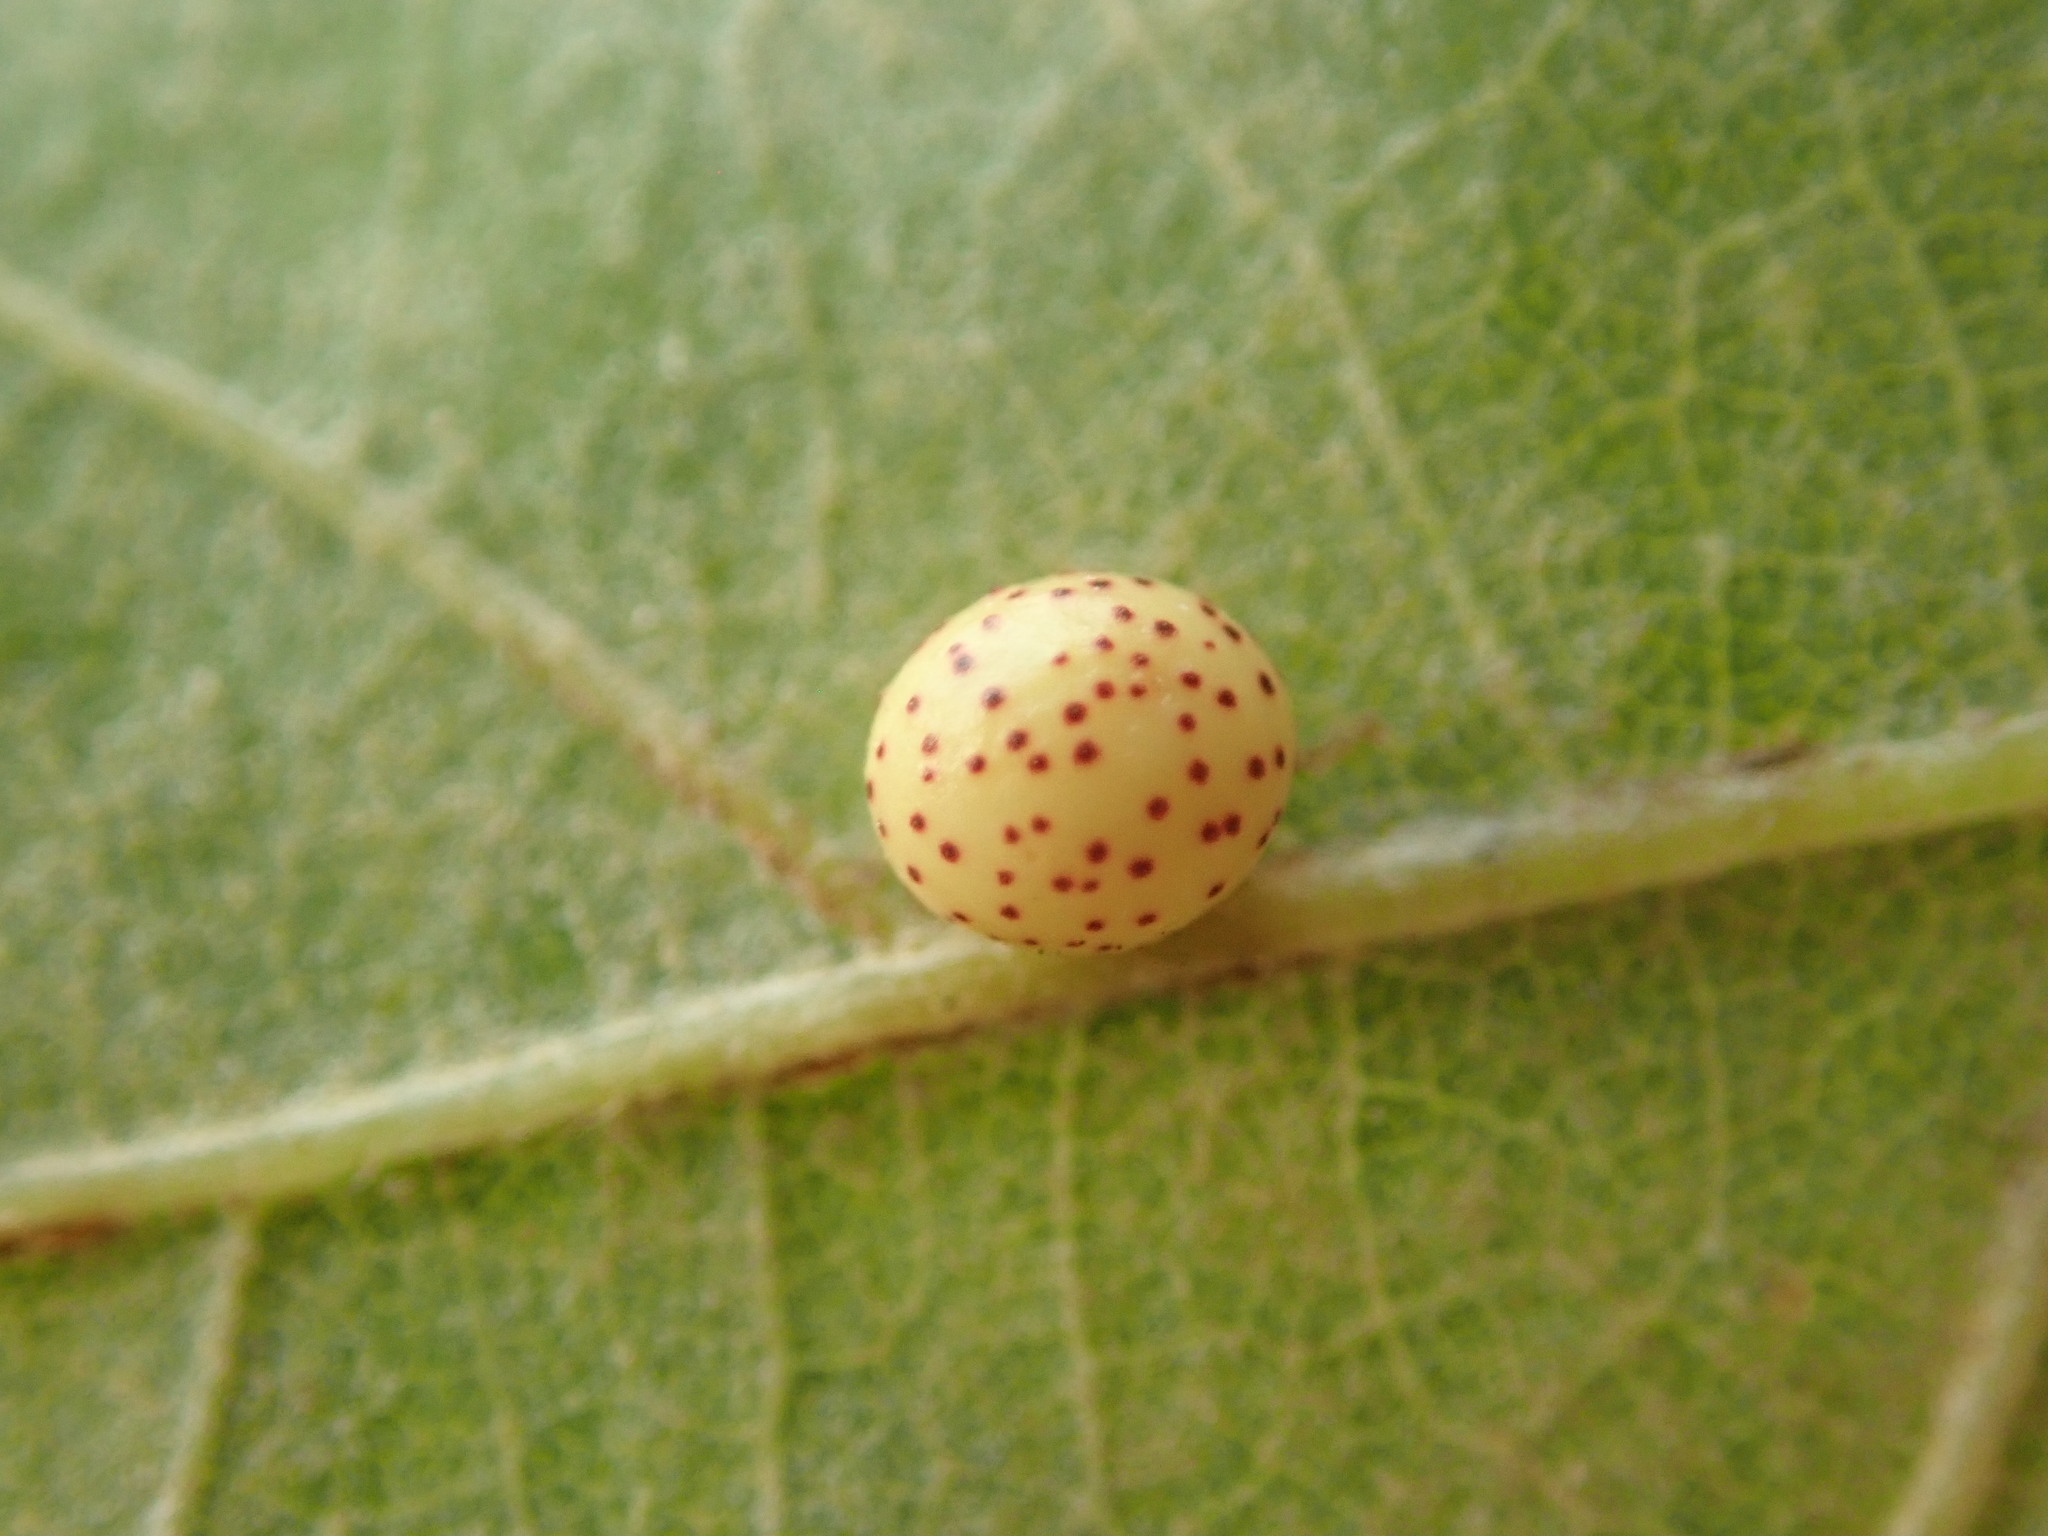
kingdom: Animalia
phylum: Arthropoda
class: Insecta
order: Hymenoptera
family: Cynipidae
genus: Zopheroteras
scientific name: Zopheroteras
